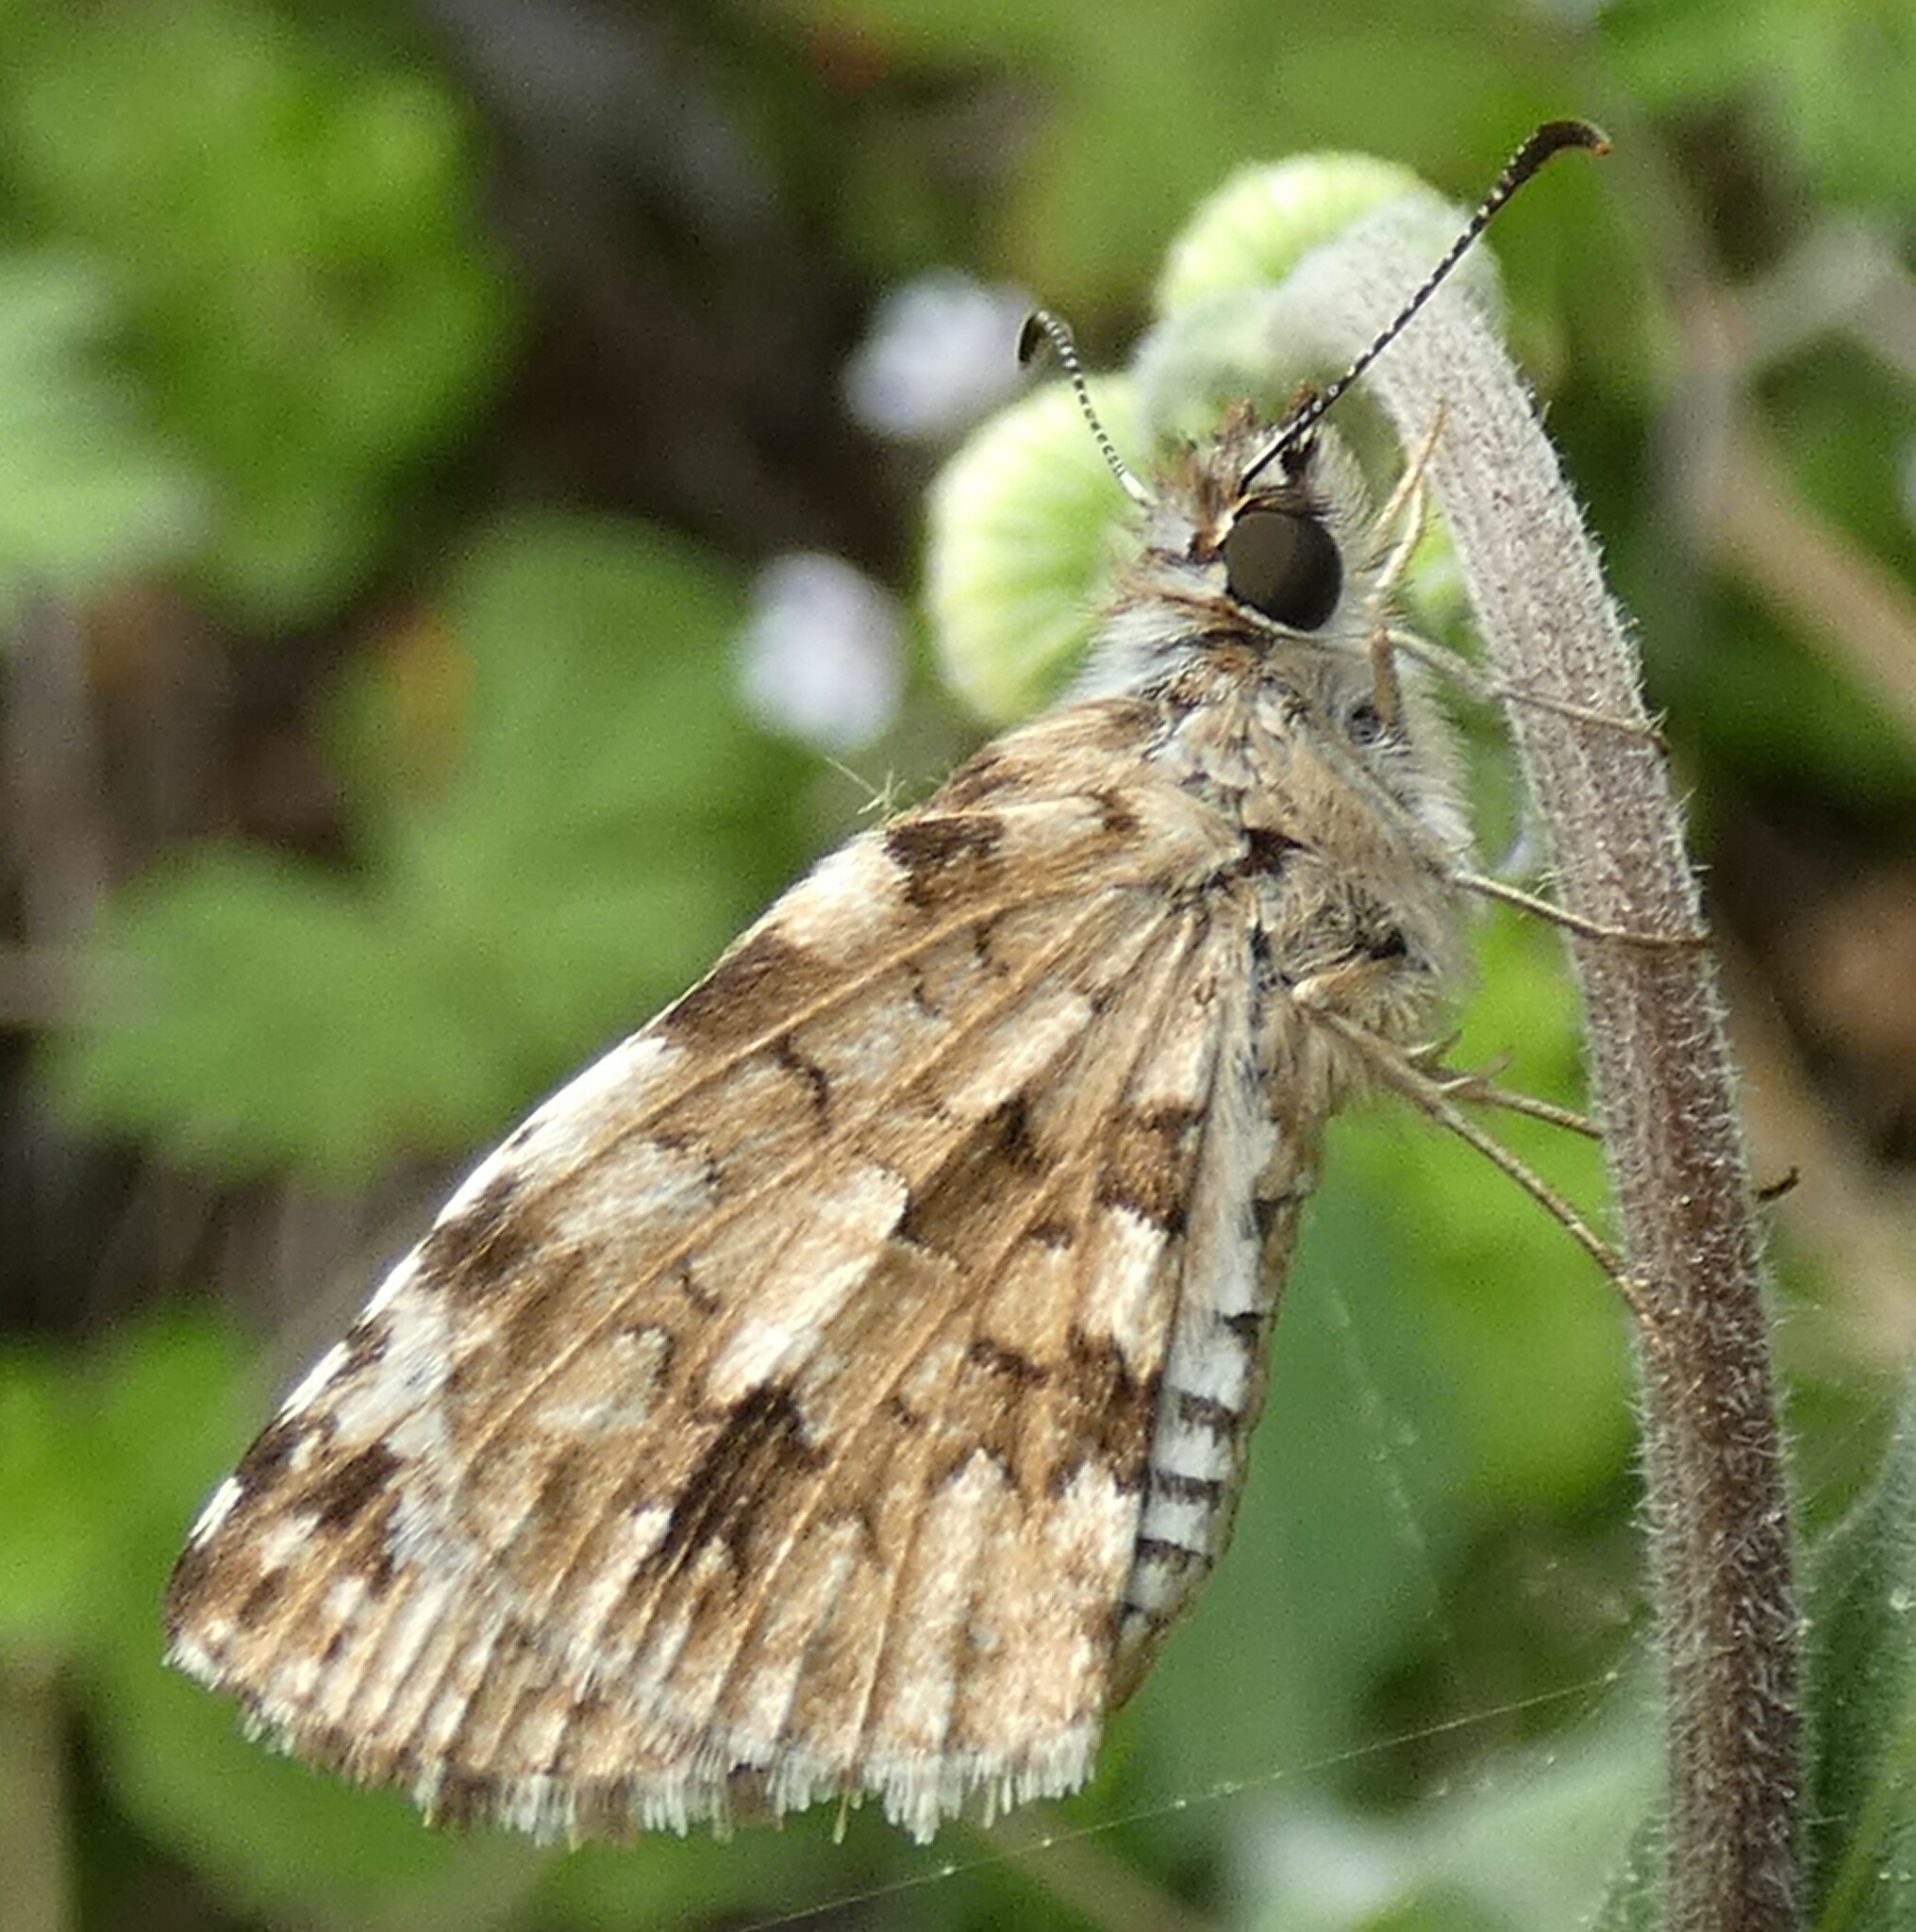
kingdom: Animalia
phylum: Arthropoda
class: Insecta
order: Lepidoptera
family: Hesperiidae
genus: Pyrgus
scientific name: Pyrgus oileus
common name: Tropical checkered-skipper
